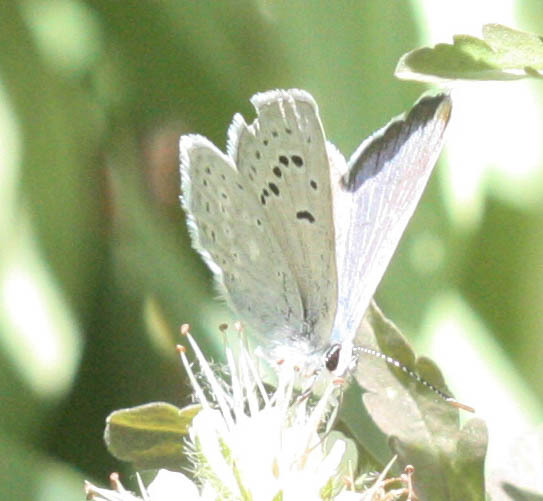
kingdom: Animalia
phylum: Arthropoda
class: Insecta
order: Lepidoptera
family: Lycaenidae
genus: Icaricia
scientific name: Icaricia icarioides
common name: Boisduval's blue
